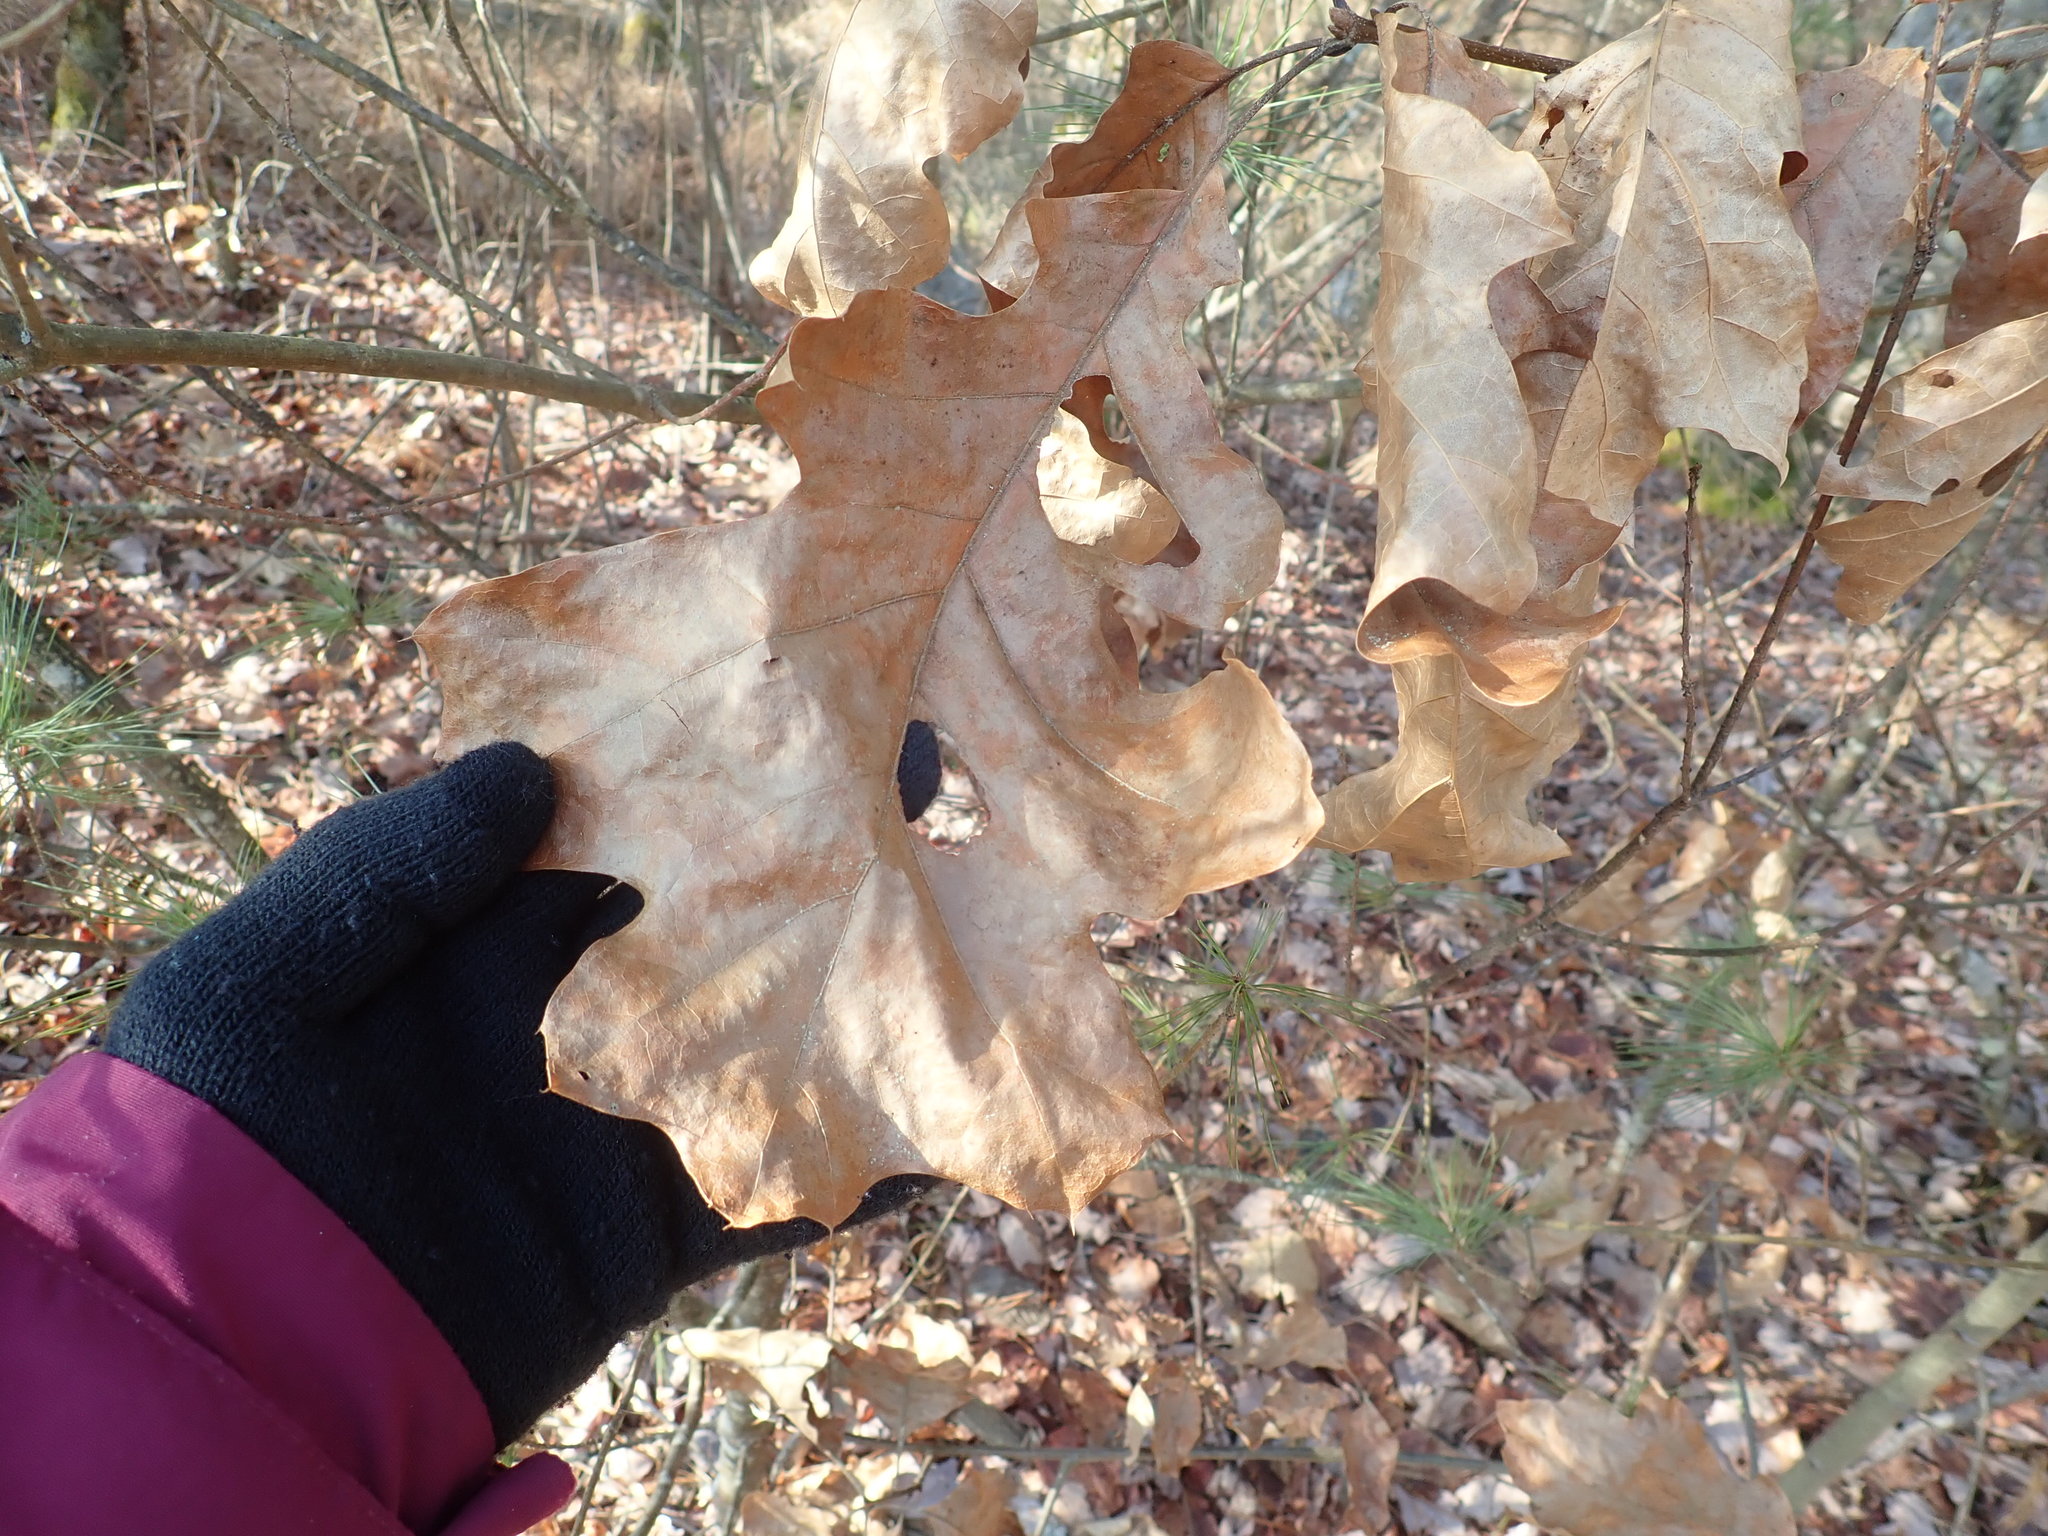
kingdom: Plantae
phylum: Tracheophyta
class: Magnoliopsida
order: Fagales
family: Fagaceae
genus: Quercus
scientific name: Quercus velutina
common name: Black oak
